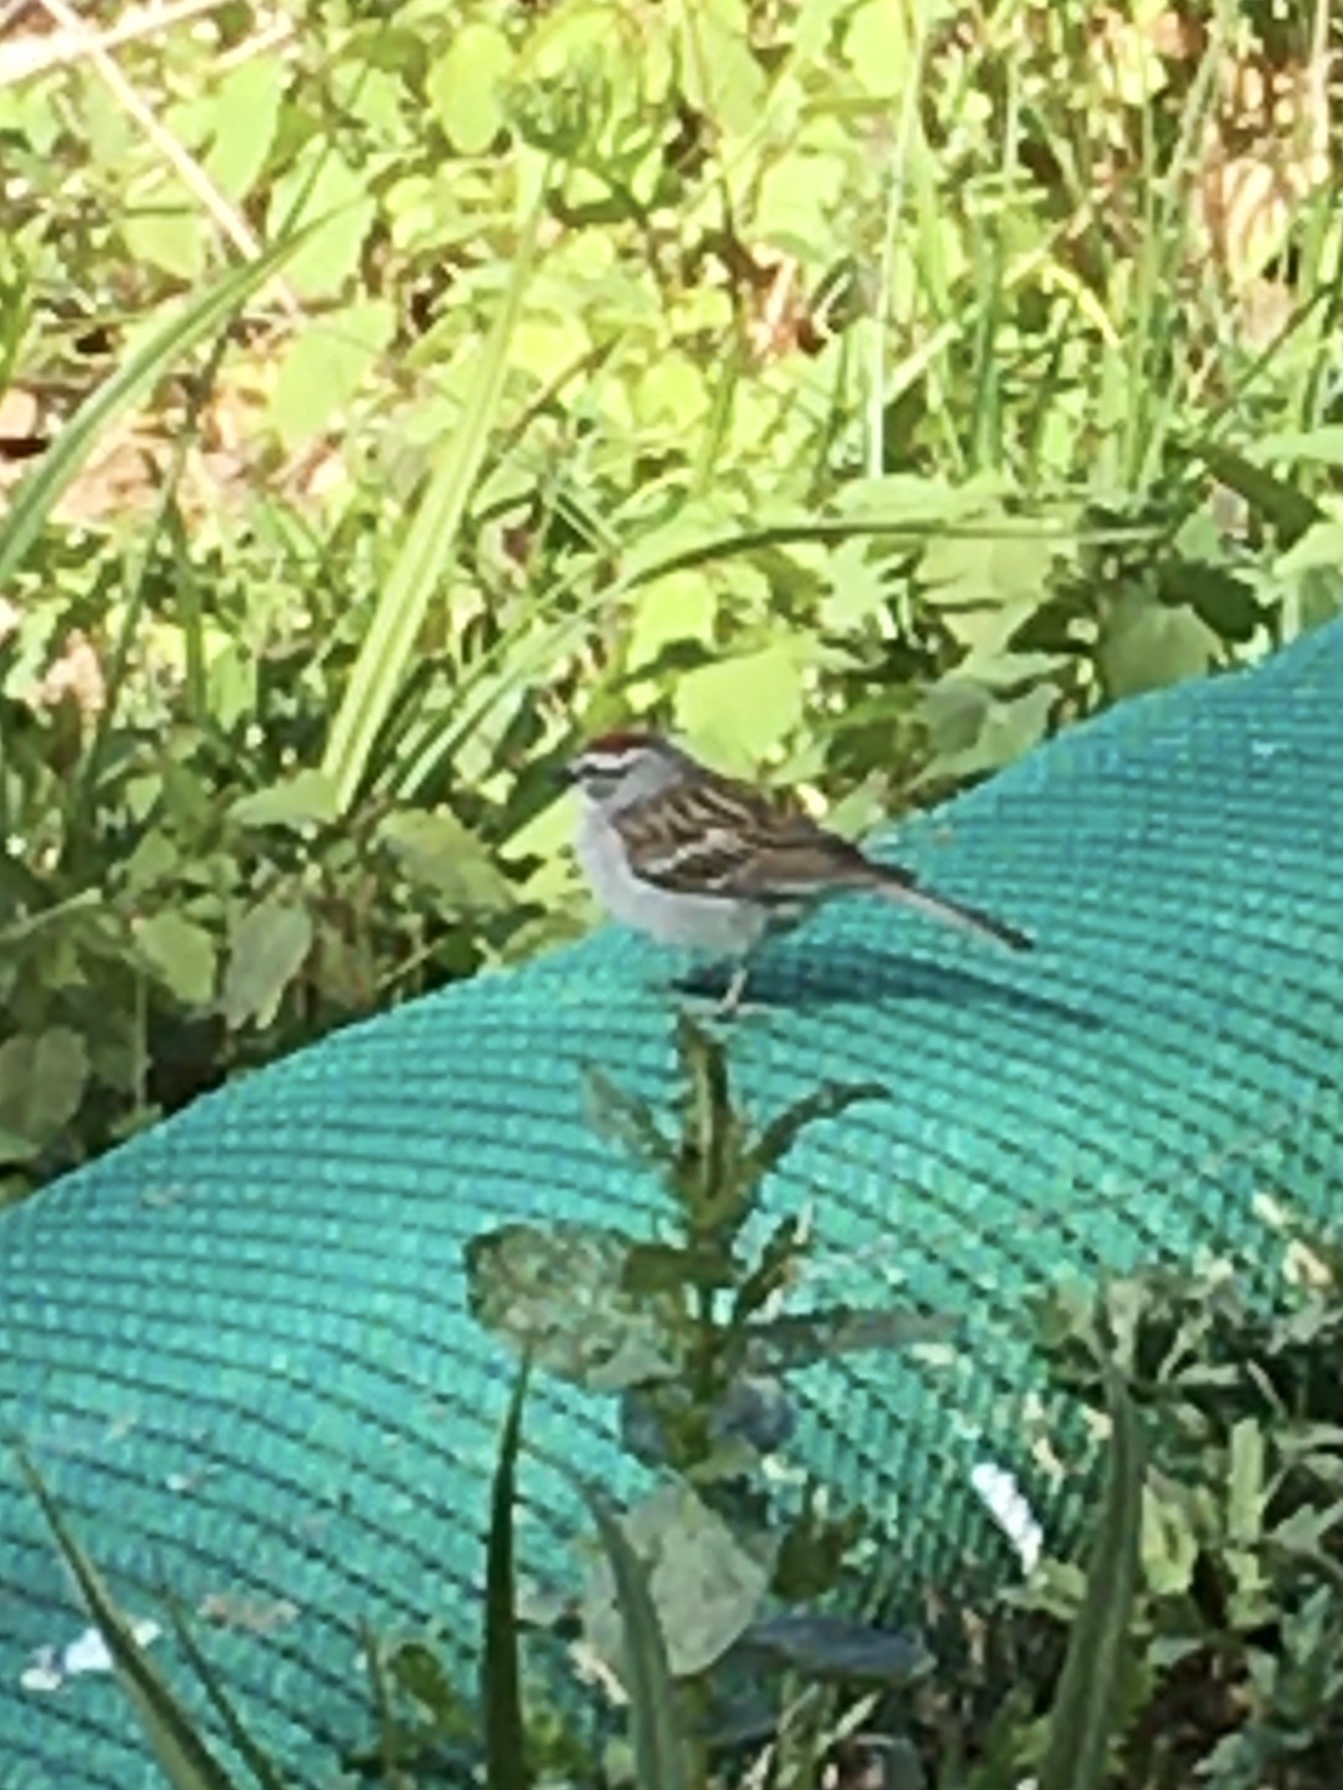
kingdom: Animalia
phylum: Chordata
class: Aves
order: Passeriformes
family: Passerellidae
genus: Spizella
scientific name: Spizella passerina
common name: Chipping sparrow
